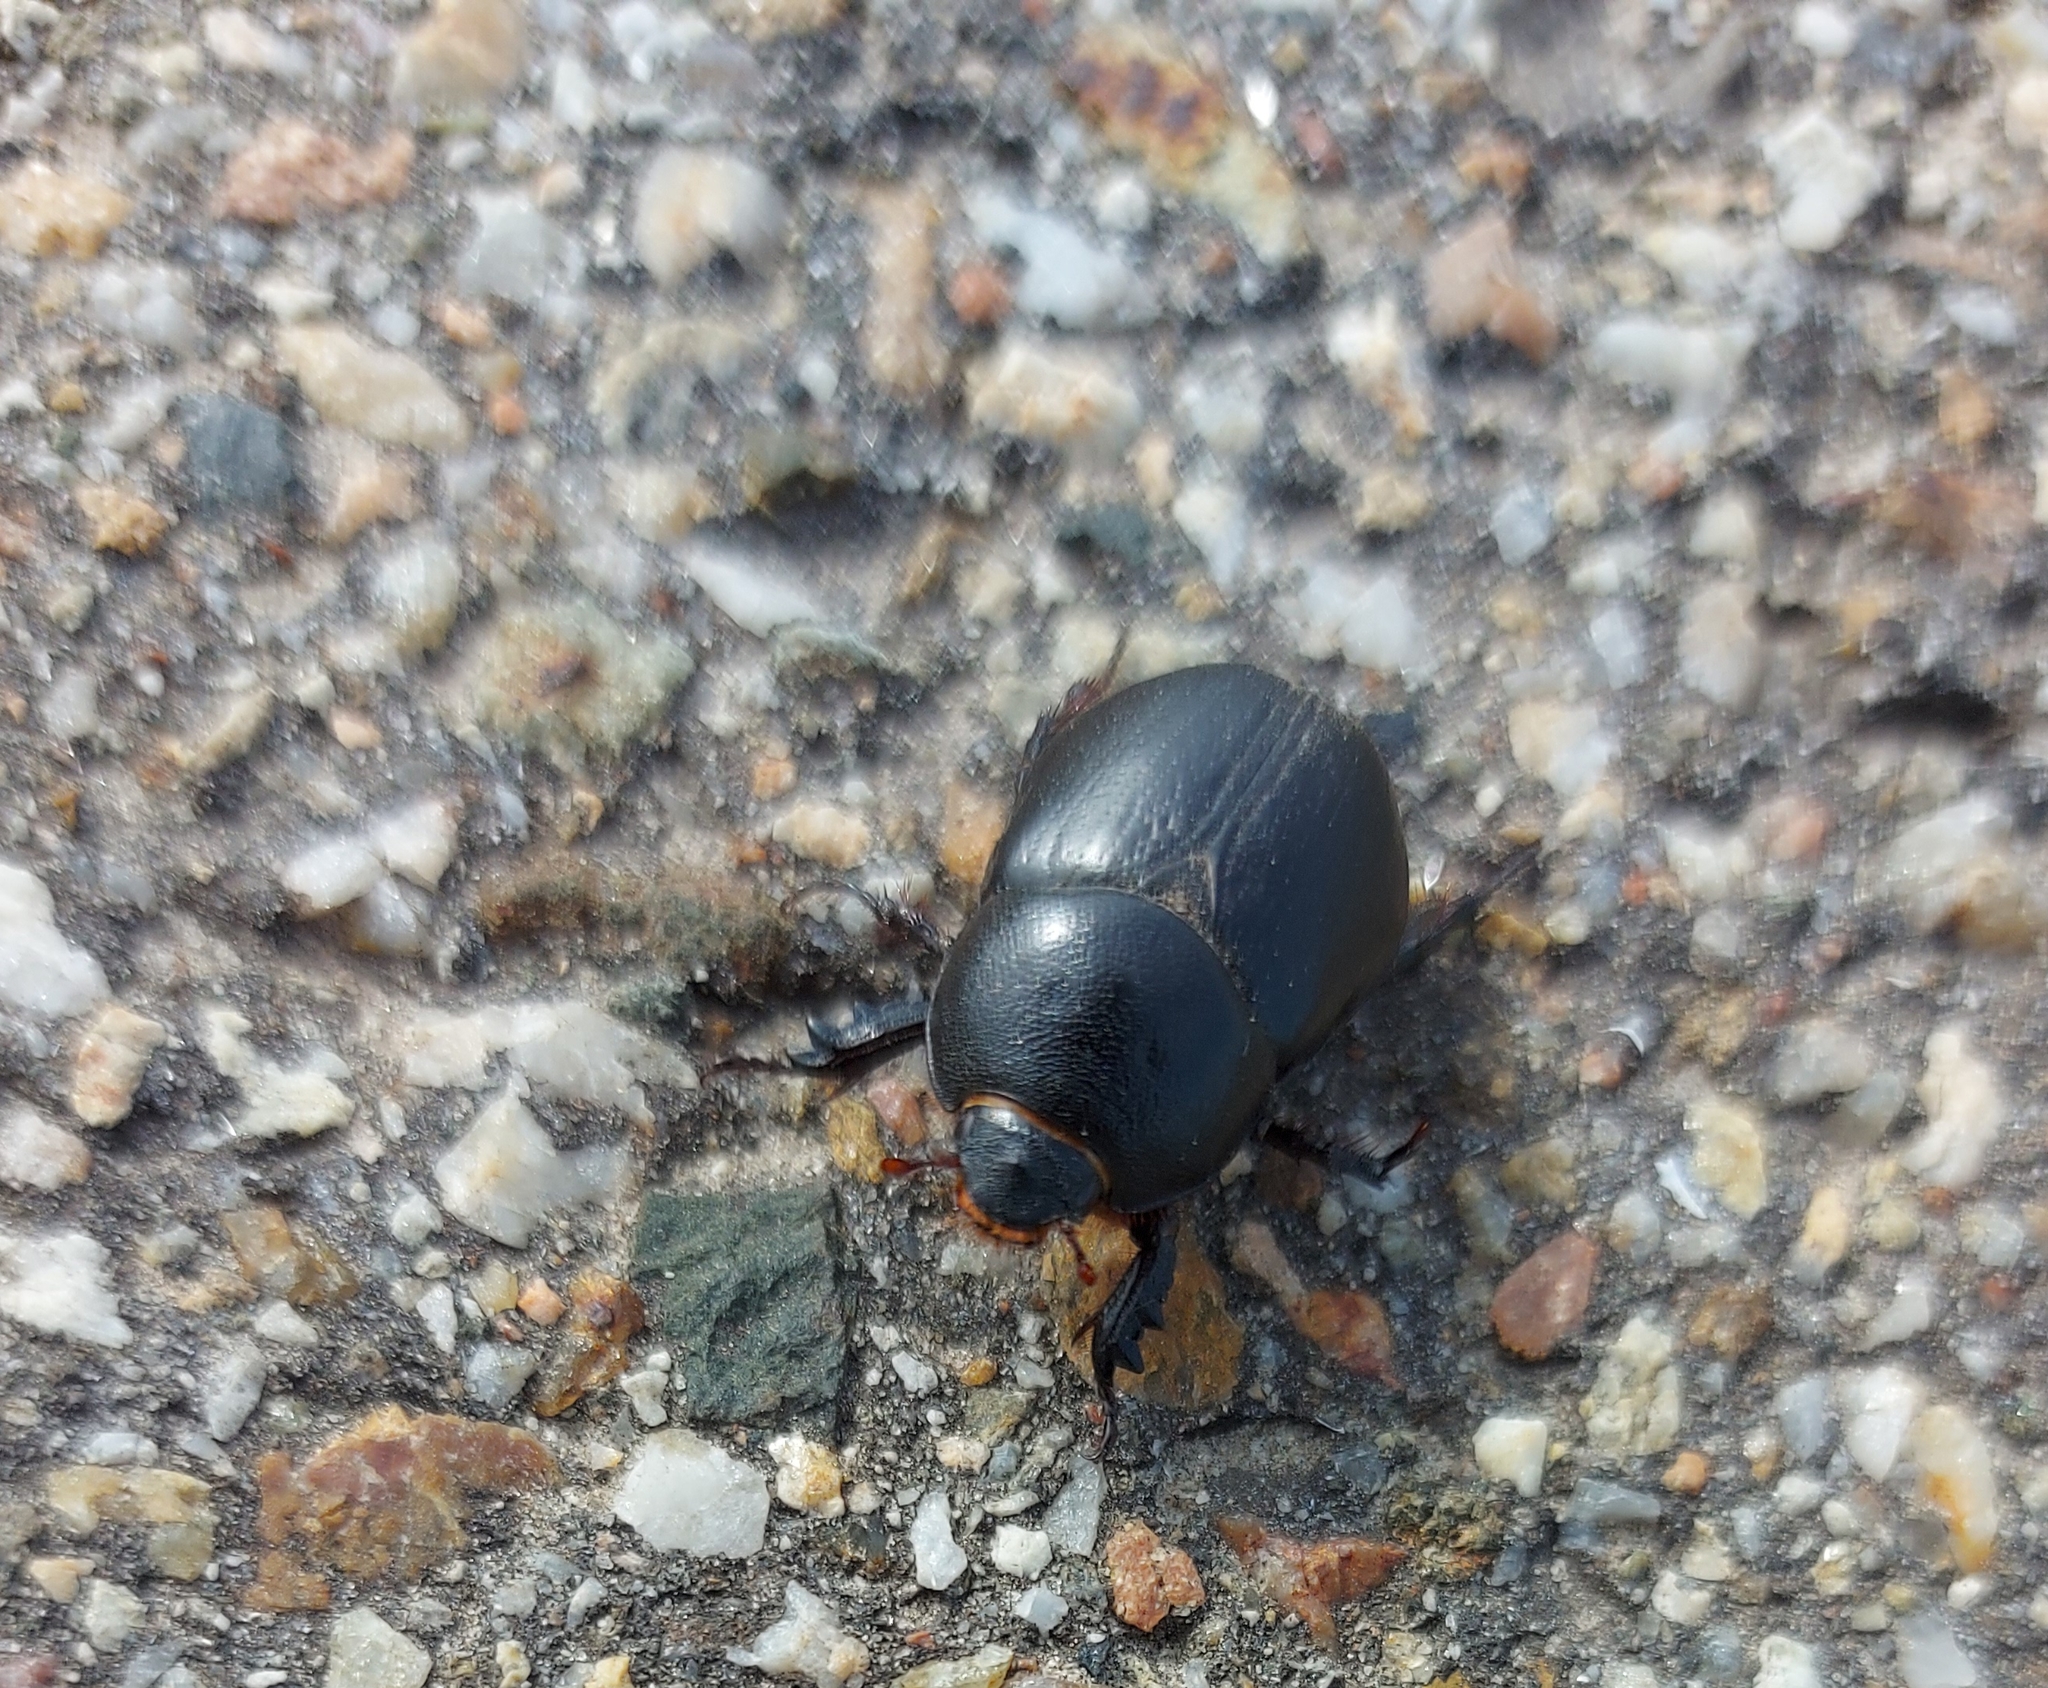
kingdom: Animalia
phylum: Arthropoda
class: Insecta
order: Coleoptera
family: Scarabaeidae
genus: Pentodon
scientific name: Pentodon idiota
